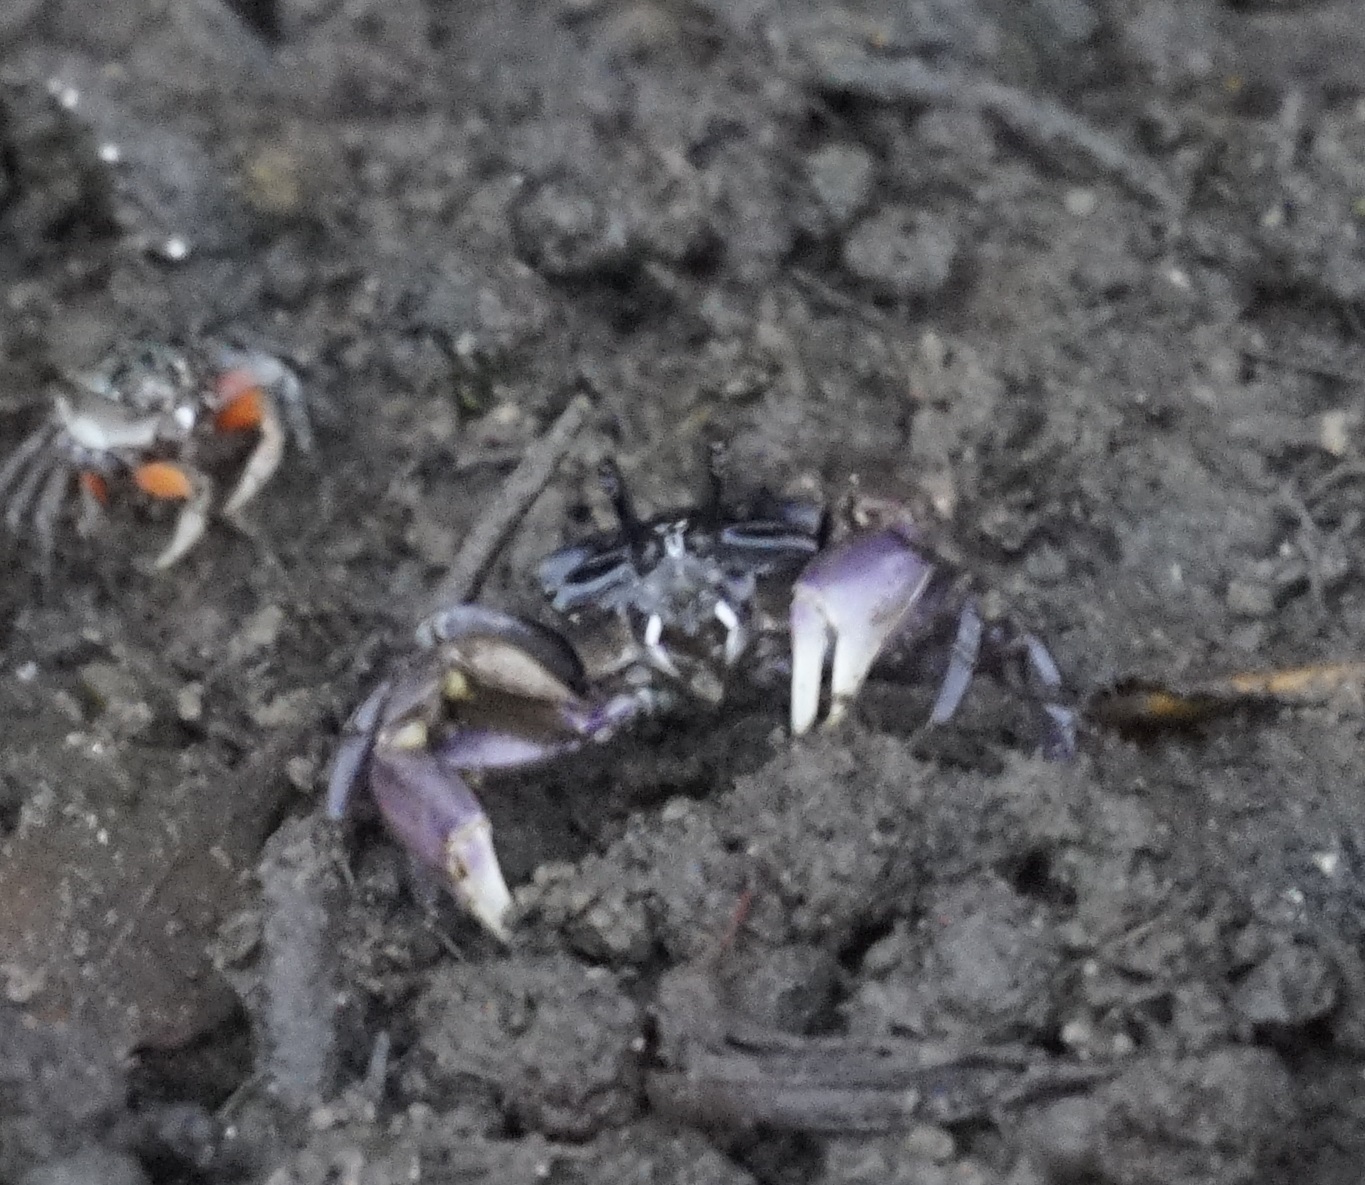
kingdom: Animalia
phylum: Arthropoda
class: Malacostraca
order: Decapoda
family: Heloeciidae
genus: Heloecius
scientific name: Heloecius cordiformis
